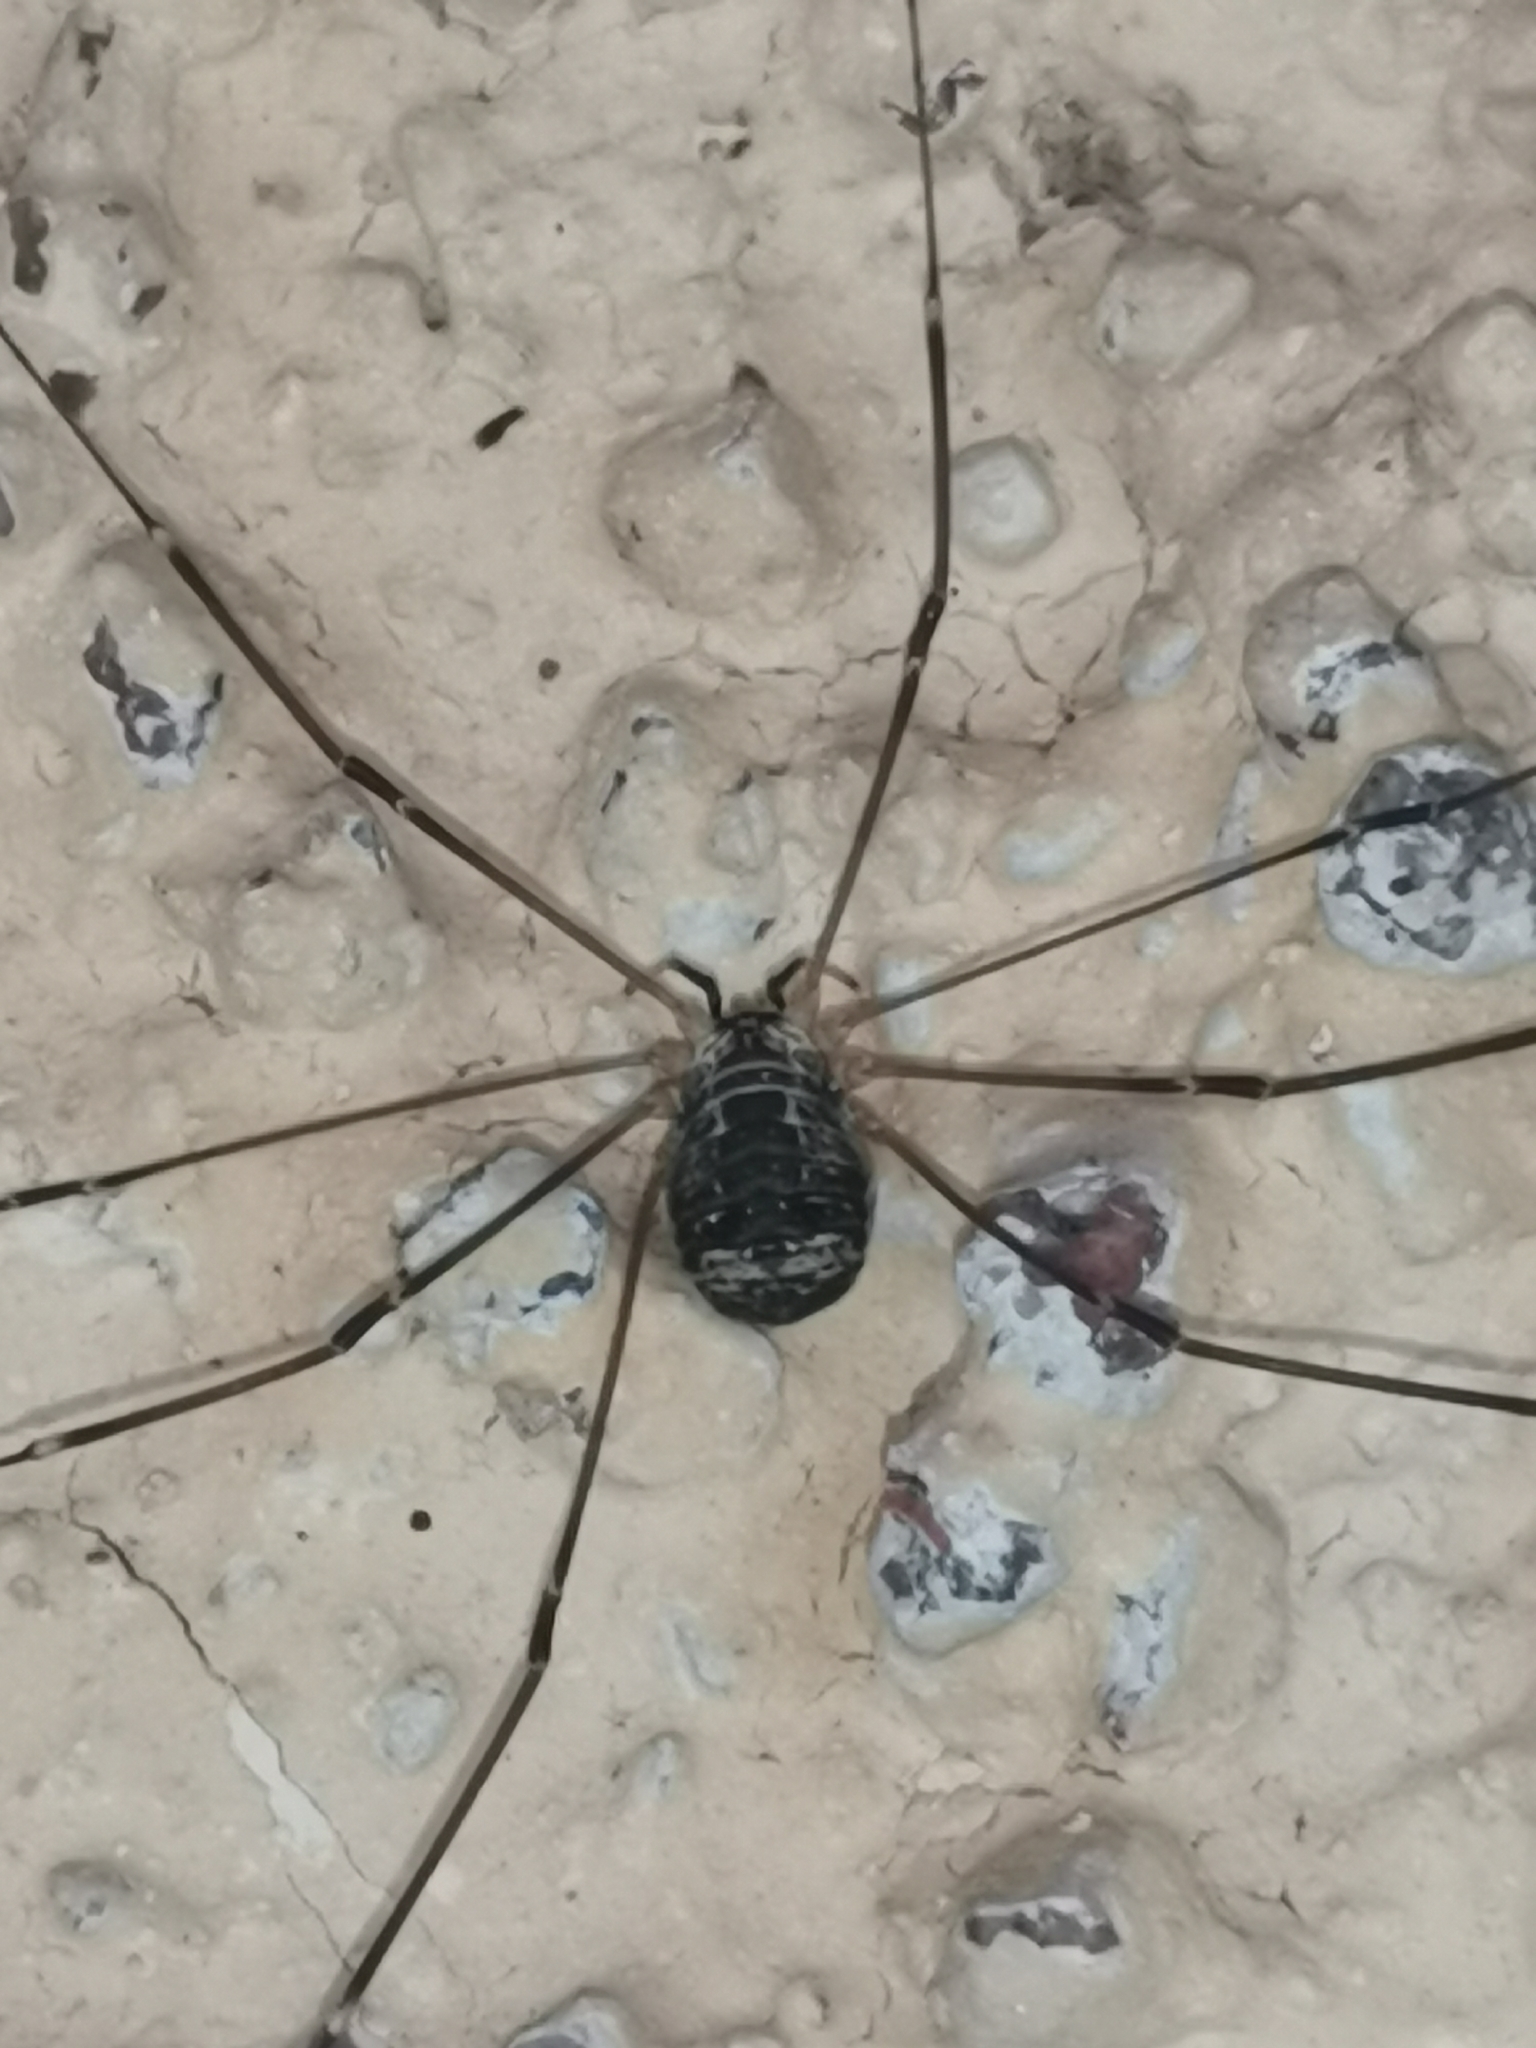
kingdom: Animalia
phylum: Arthropoda
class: Arachnida
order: Opiliones
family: Sclerosomatidae
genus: Leiobunum
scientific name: Leiobunum gracile
